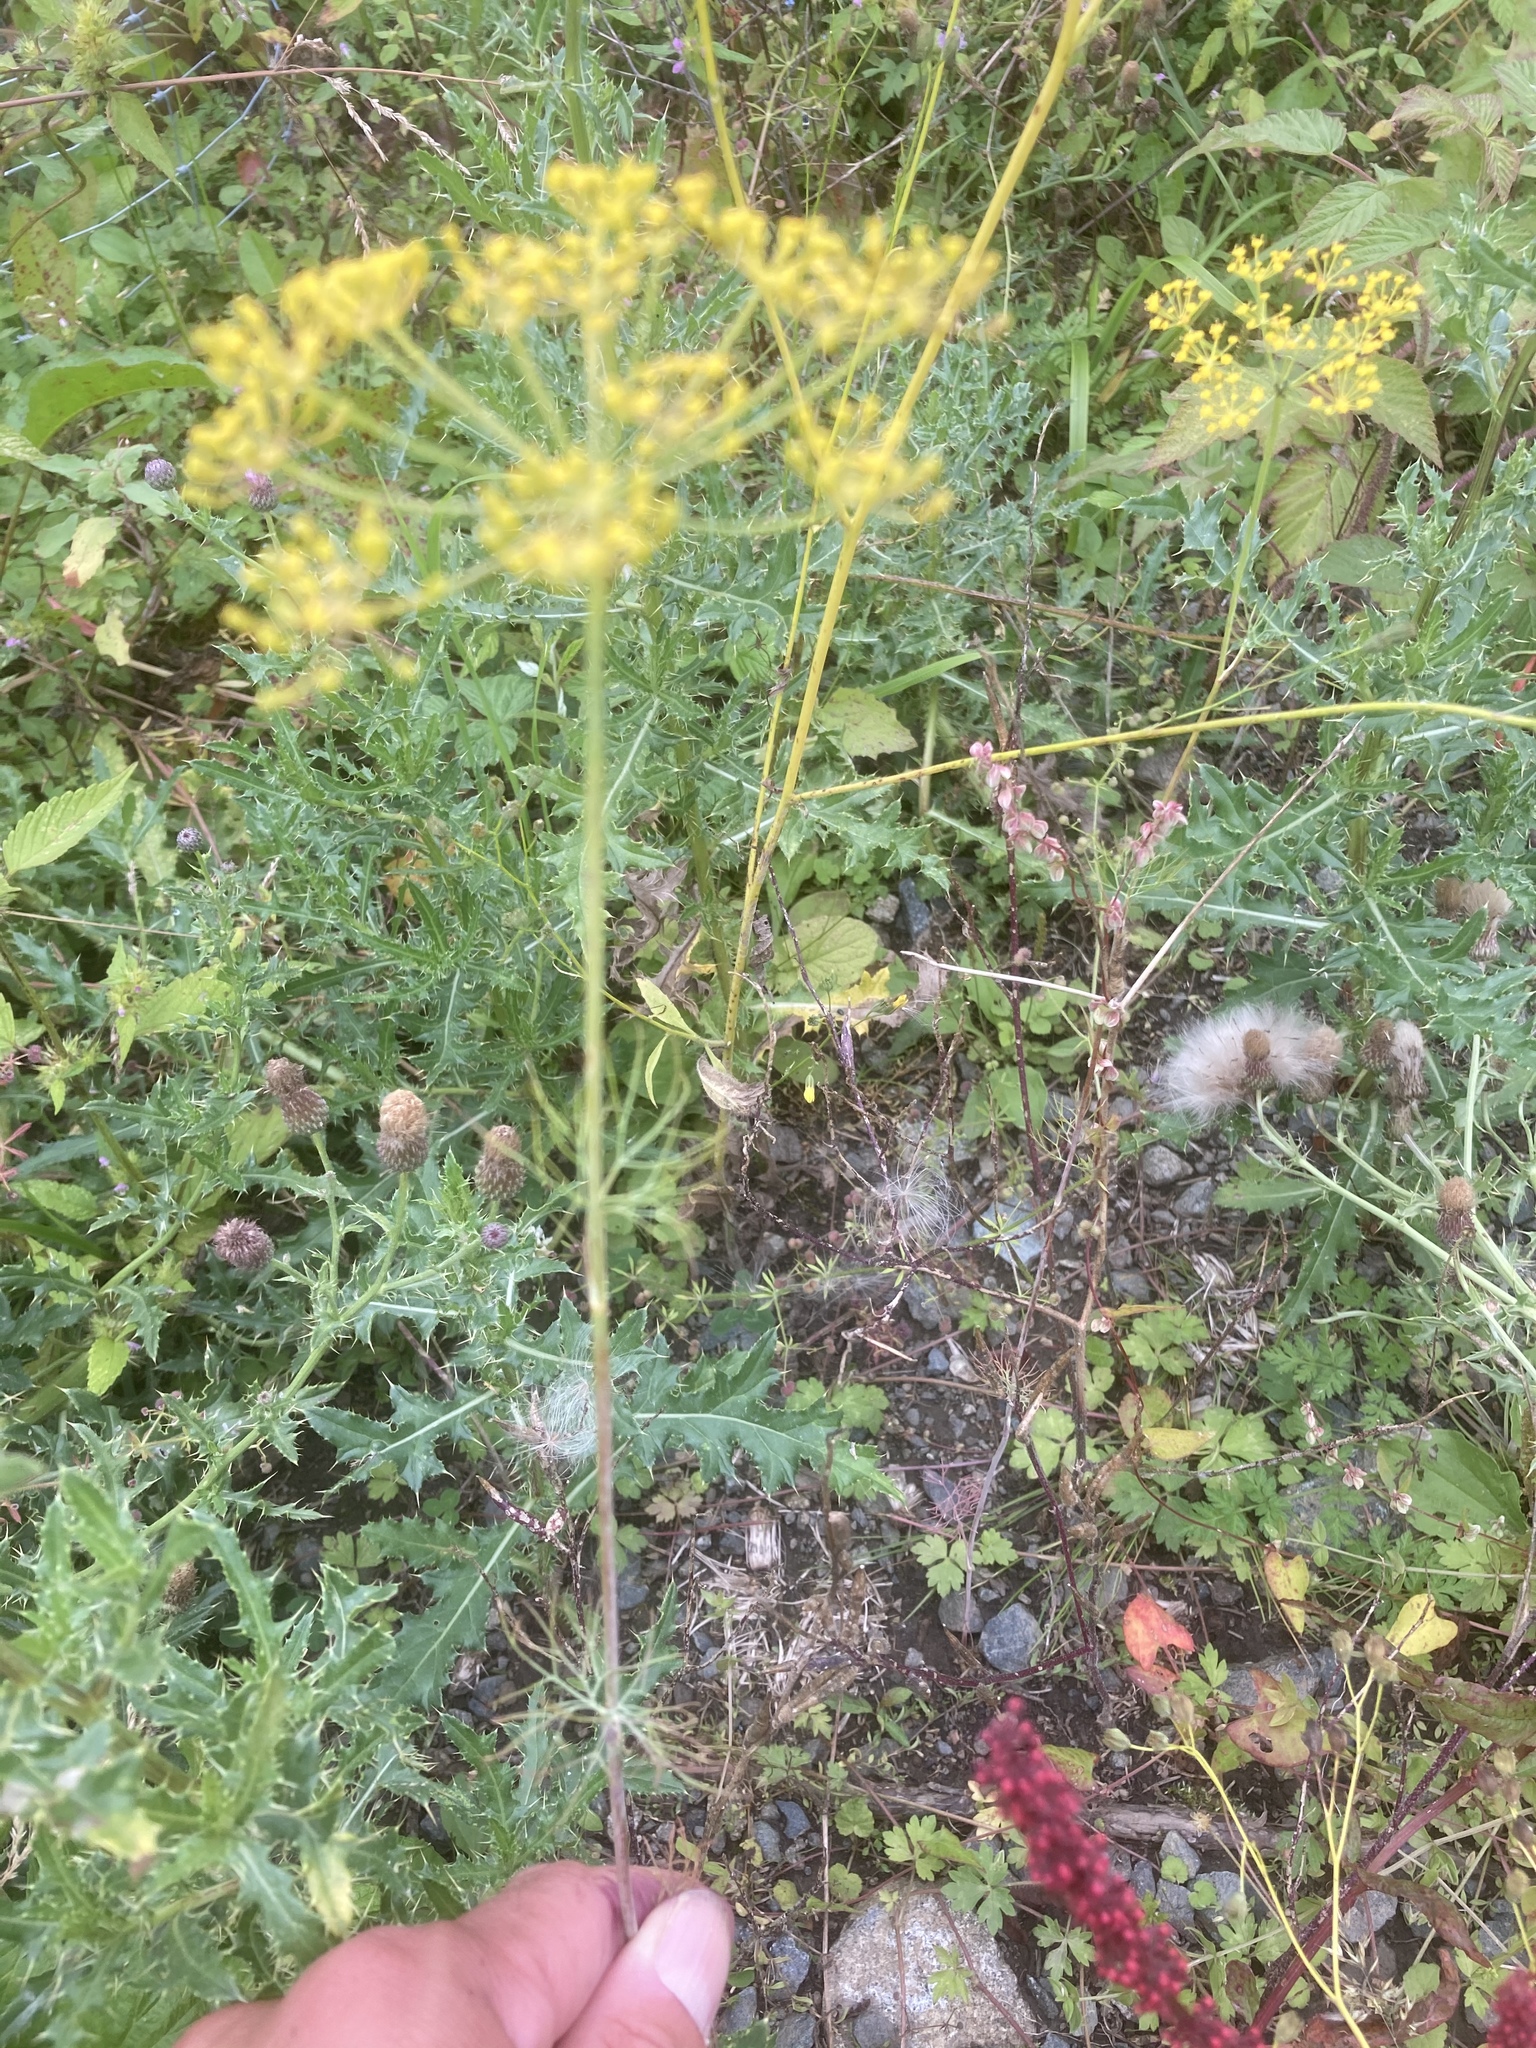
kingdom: Plantae
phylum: Tracheophyta
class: Magnoliopsida
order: Apiales
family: Apiaceae
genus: Anethum
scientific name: Anethum graveolens
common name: Dill
